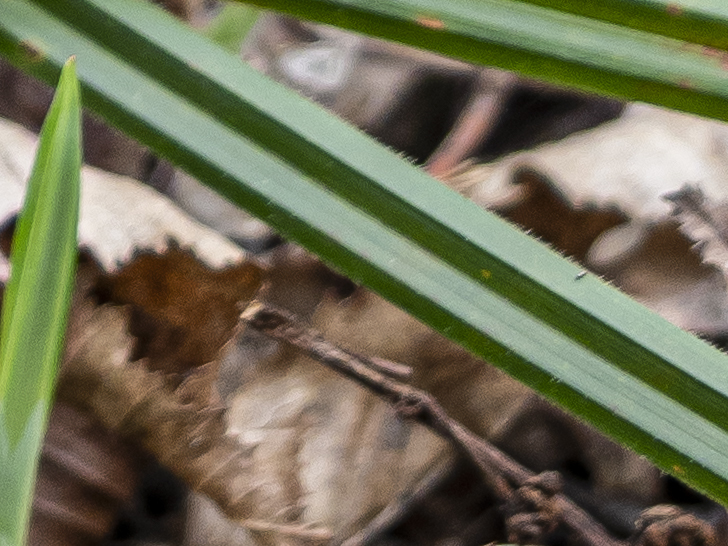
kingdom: Plantae
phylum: Tracheophyta
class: Liliopsida
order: Poales
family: Cyperaceae
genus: Carex
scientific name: Carex pilosa
